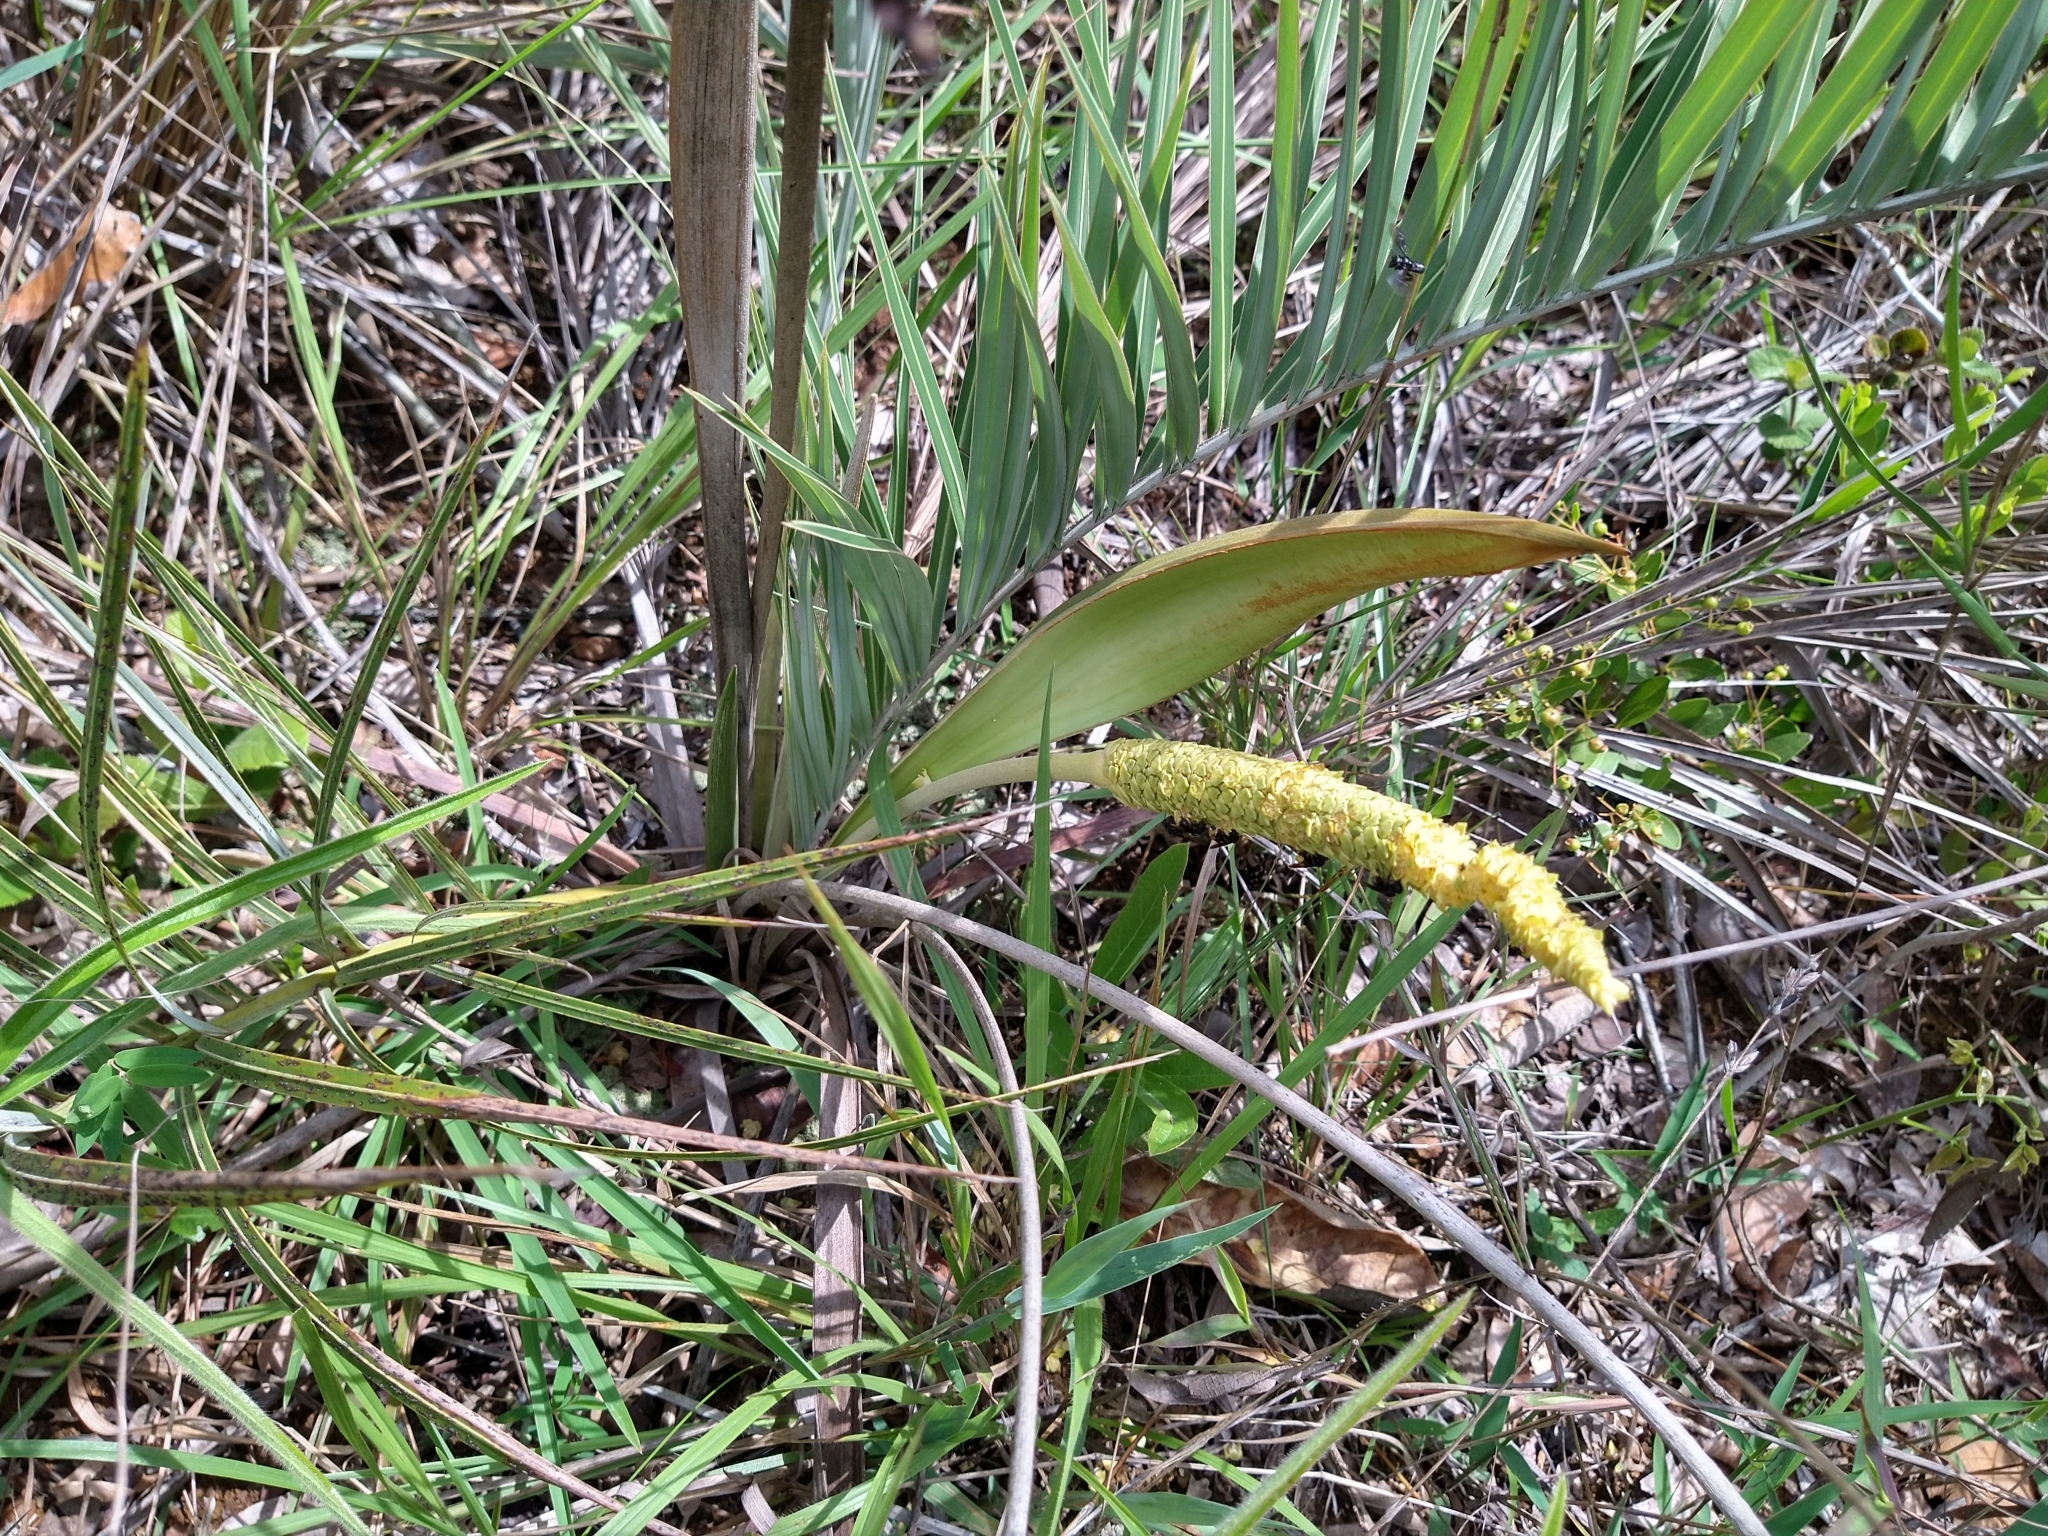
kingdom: Plantae
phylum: Tracheophyta
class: Liliopsida
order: Arecales
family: Arecaceae
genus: Allagoptera
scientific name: Allagoptera campestris
